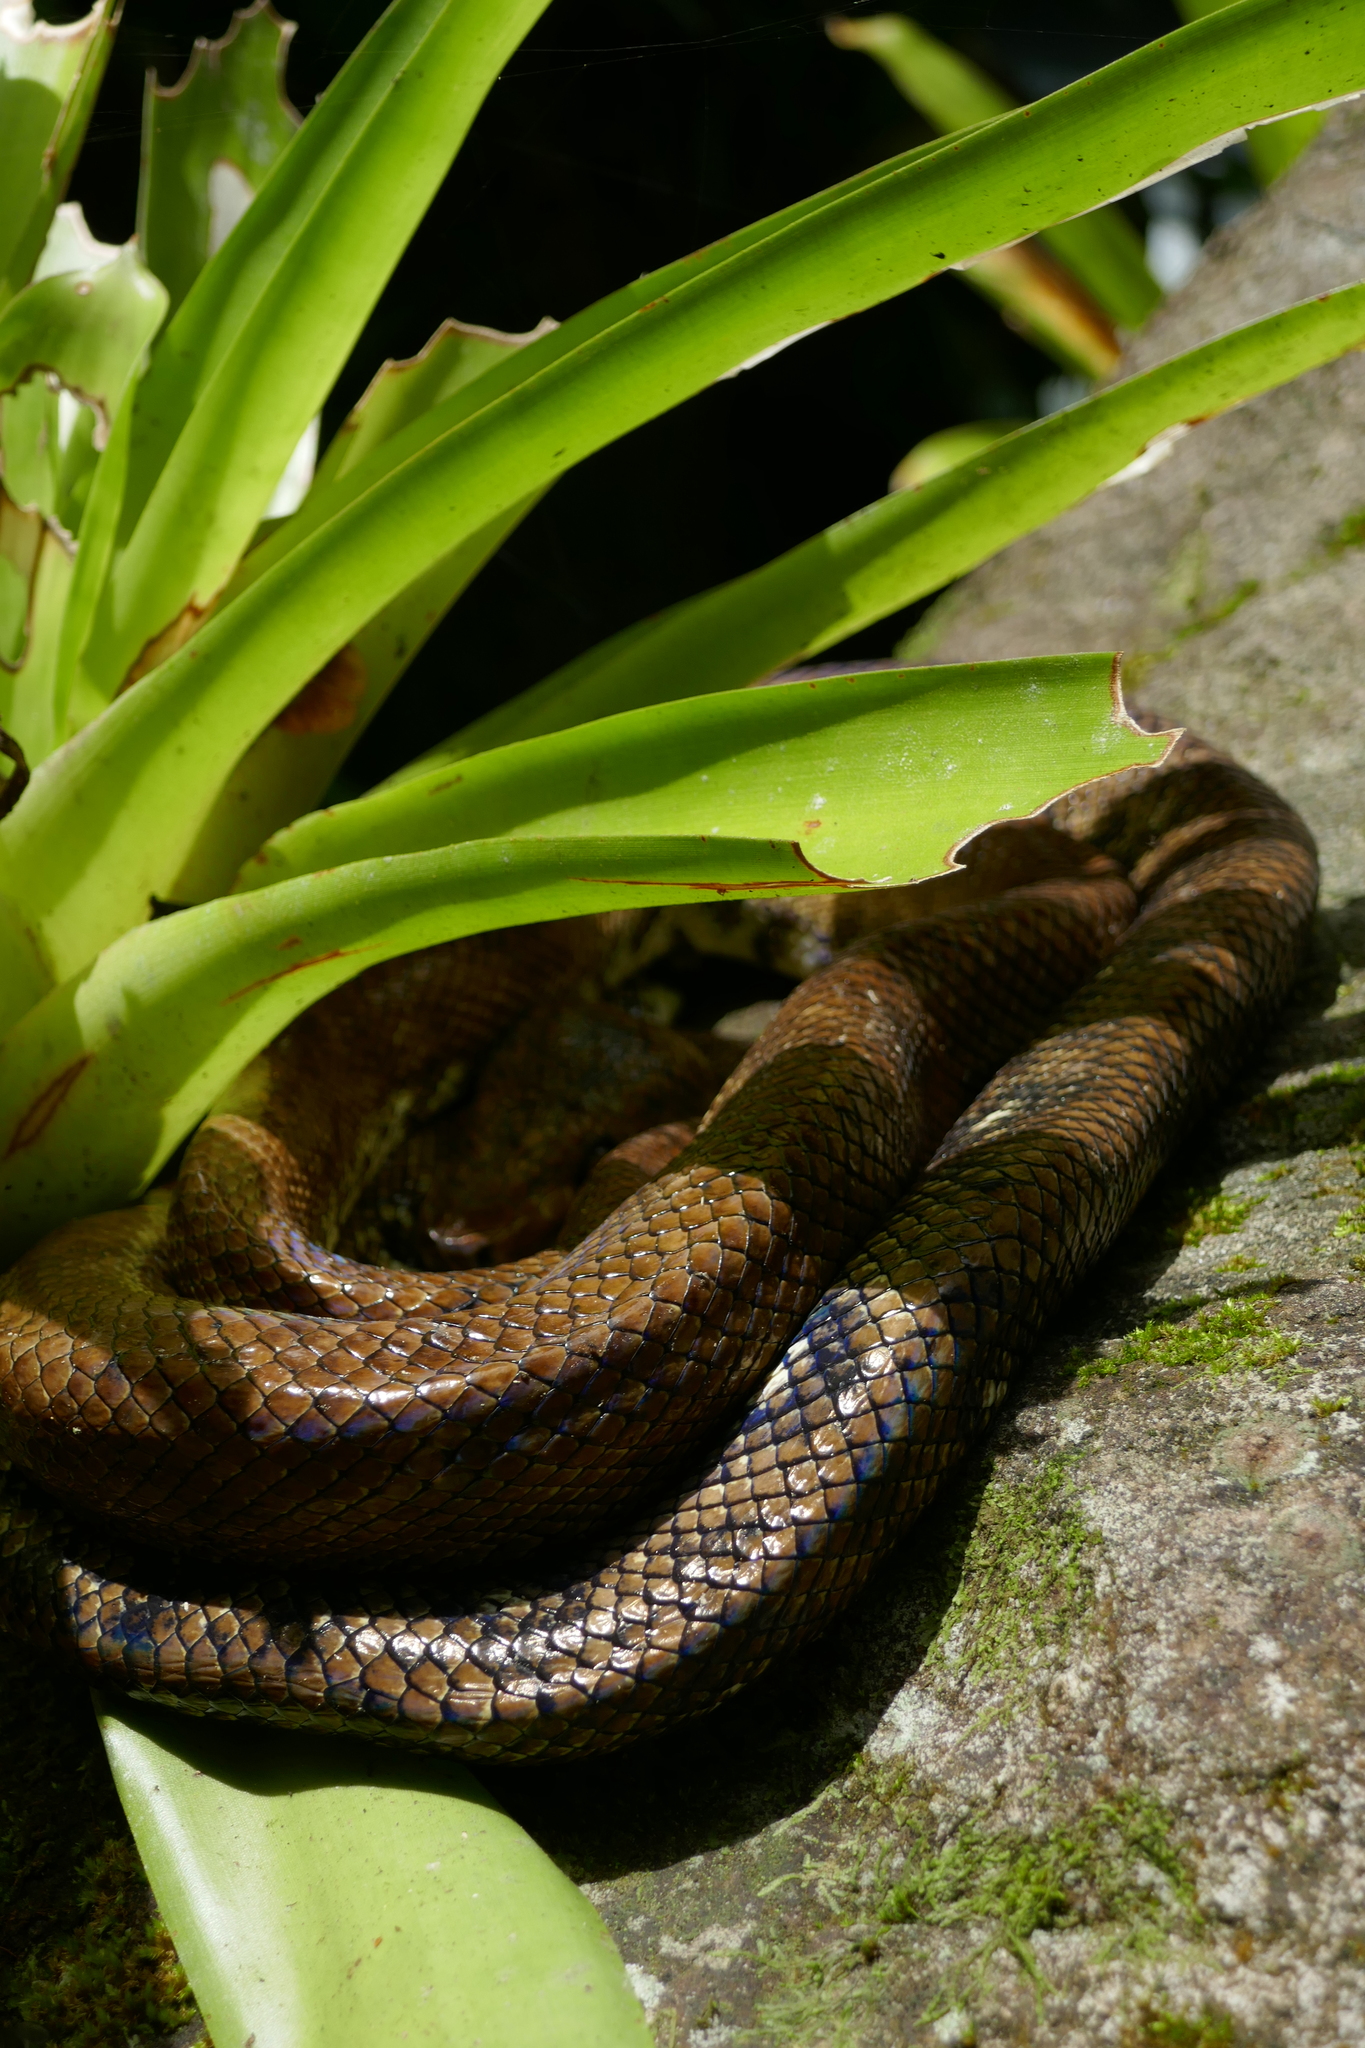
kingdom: Animalia
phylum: Chordata
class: Squamata
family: Boidae
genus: Corallus
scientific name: Corallus ruschenbergerii
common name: Dormilona
